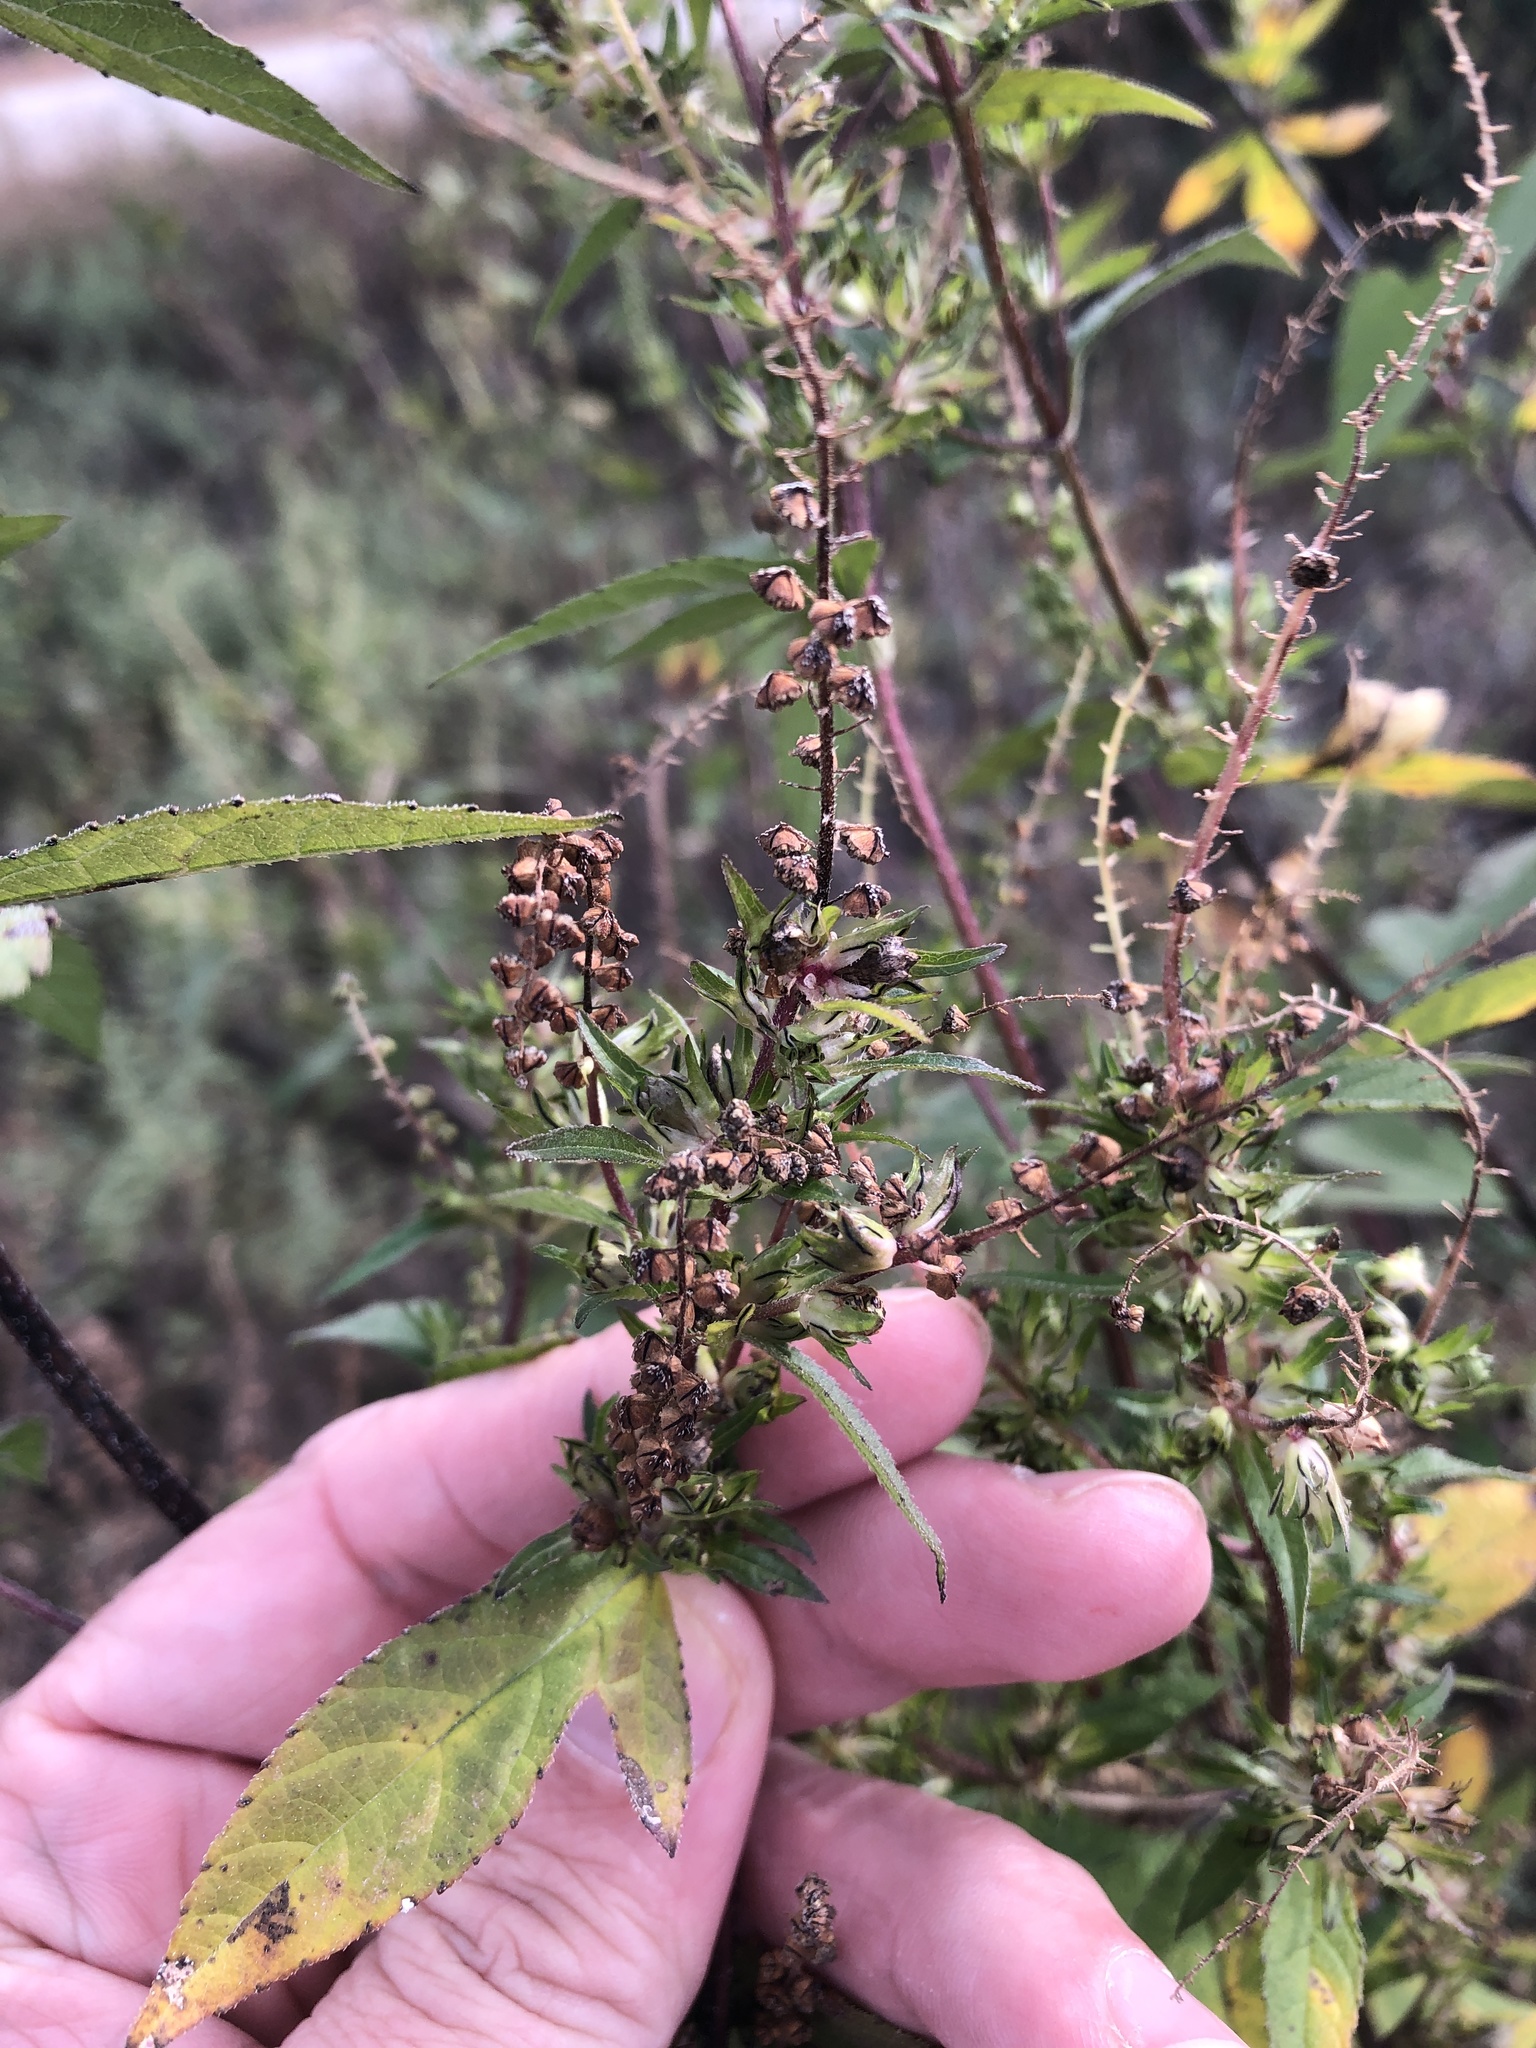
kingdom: Plantae
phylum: Tracheophyta
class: Magnoliopsida
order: Asterales
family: Asteraceae
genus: Ambrosia
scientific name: Ambrosia trifida
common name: Giant ragweed
